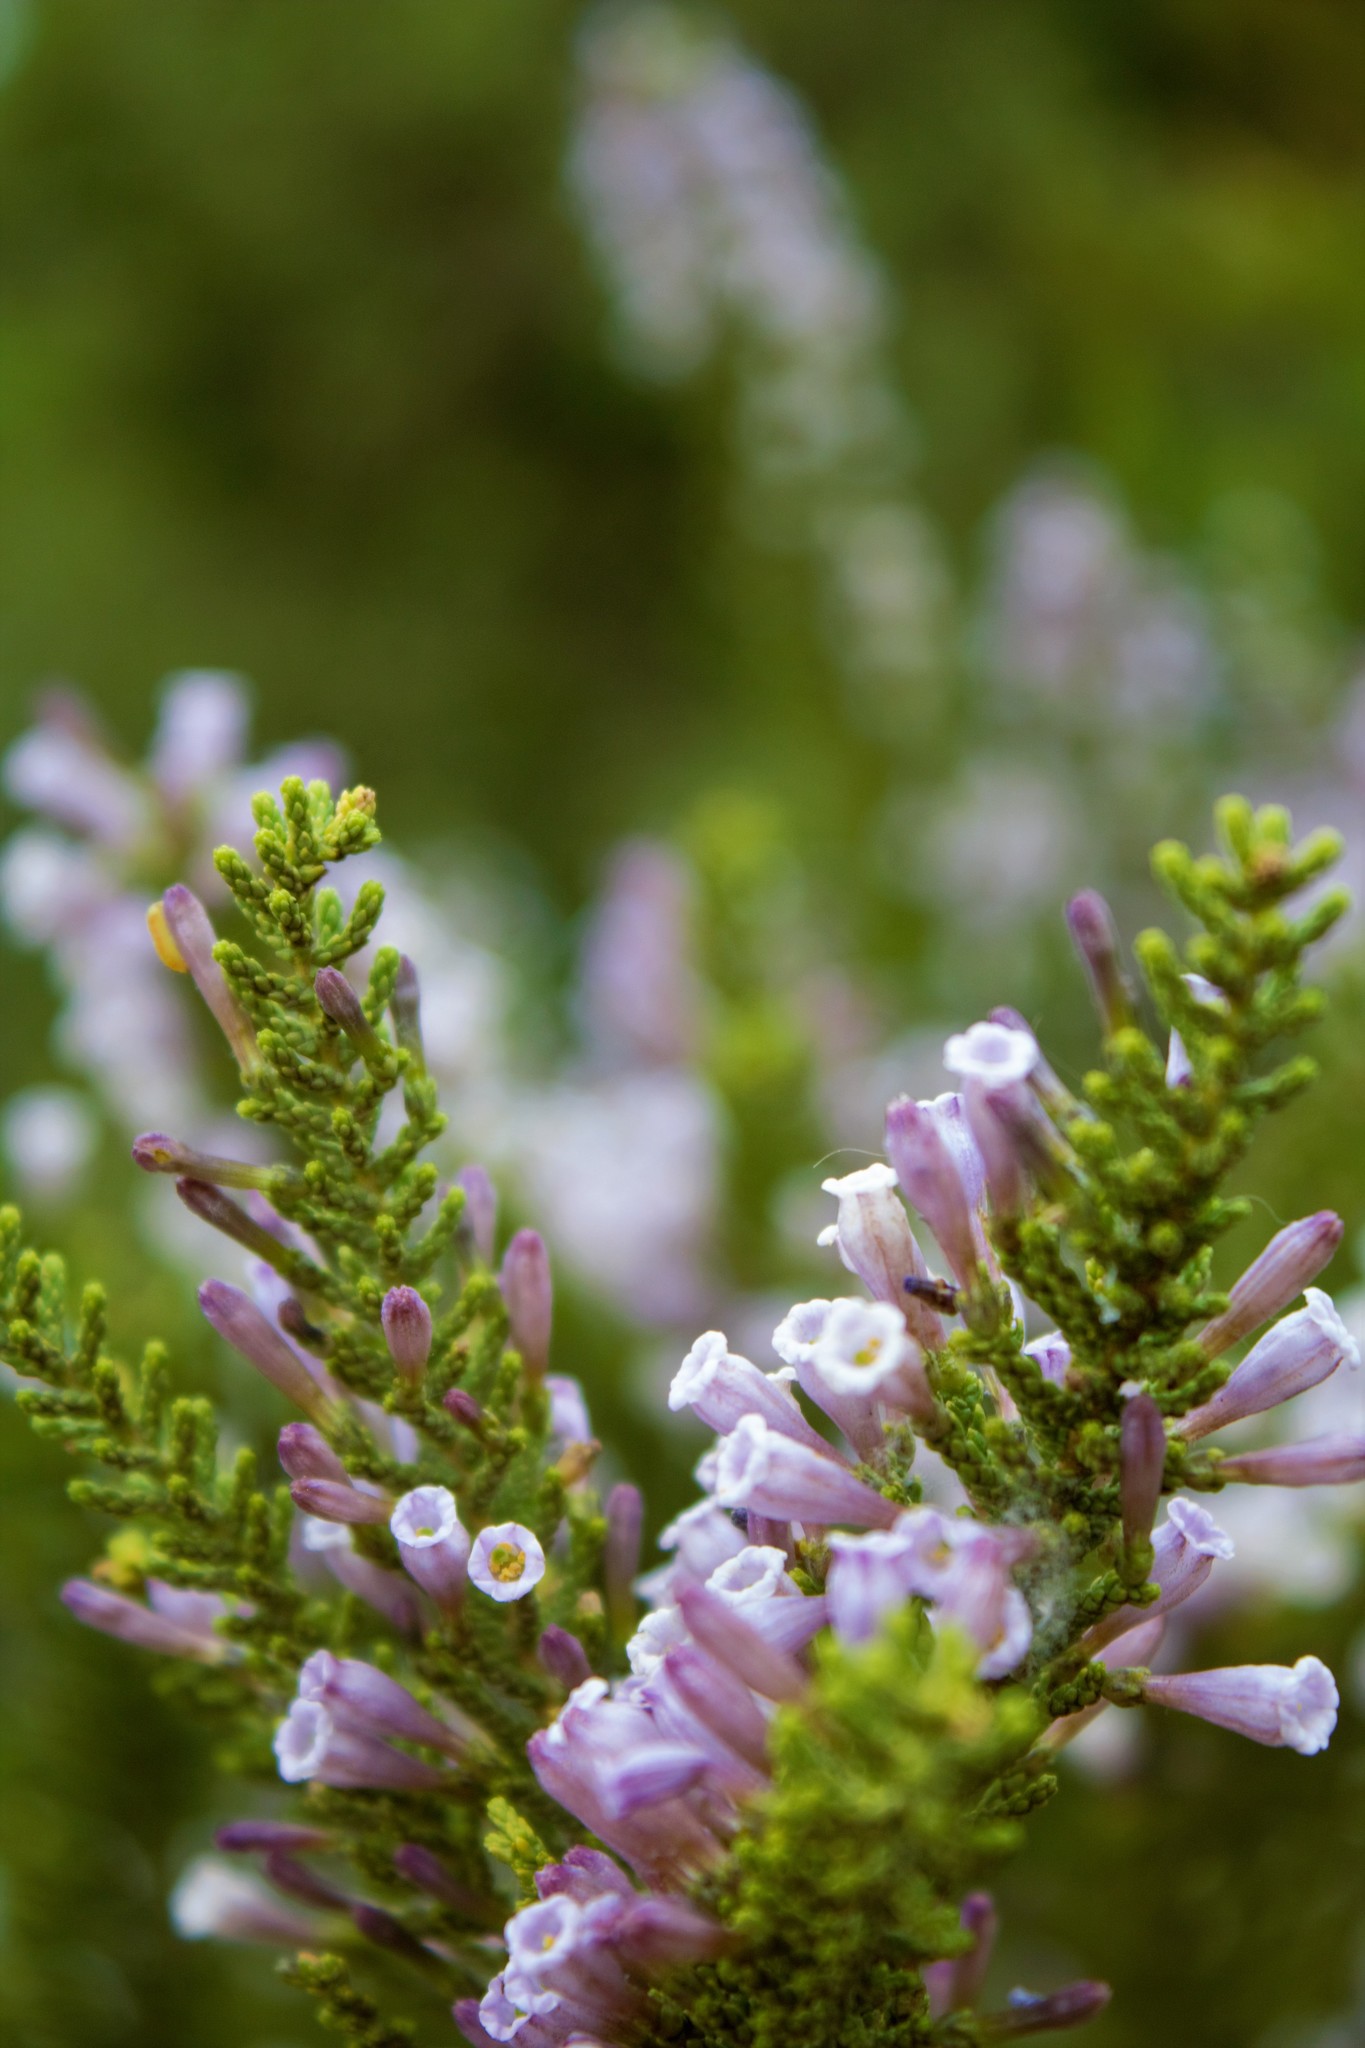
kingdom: Plantae
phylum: Tracheophyta
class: Magnoliopsida
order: Solanales
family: Solanaceae
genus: Fabiana
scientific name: Fabiana imbricata
